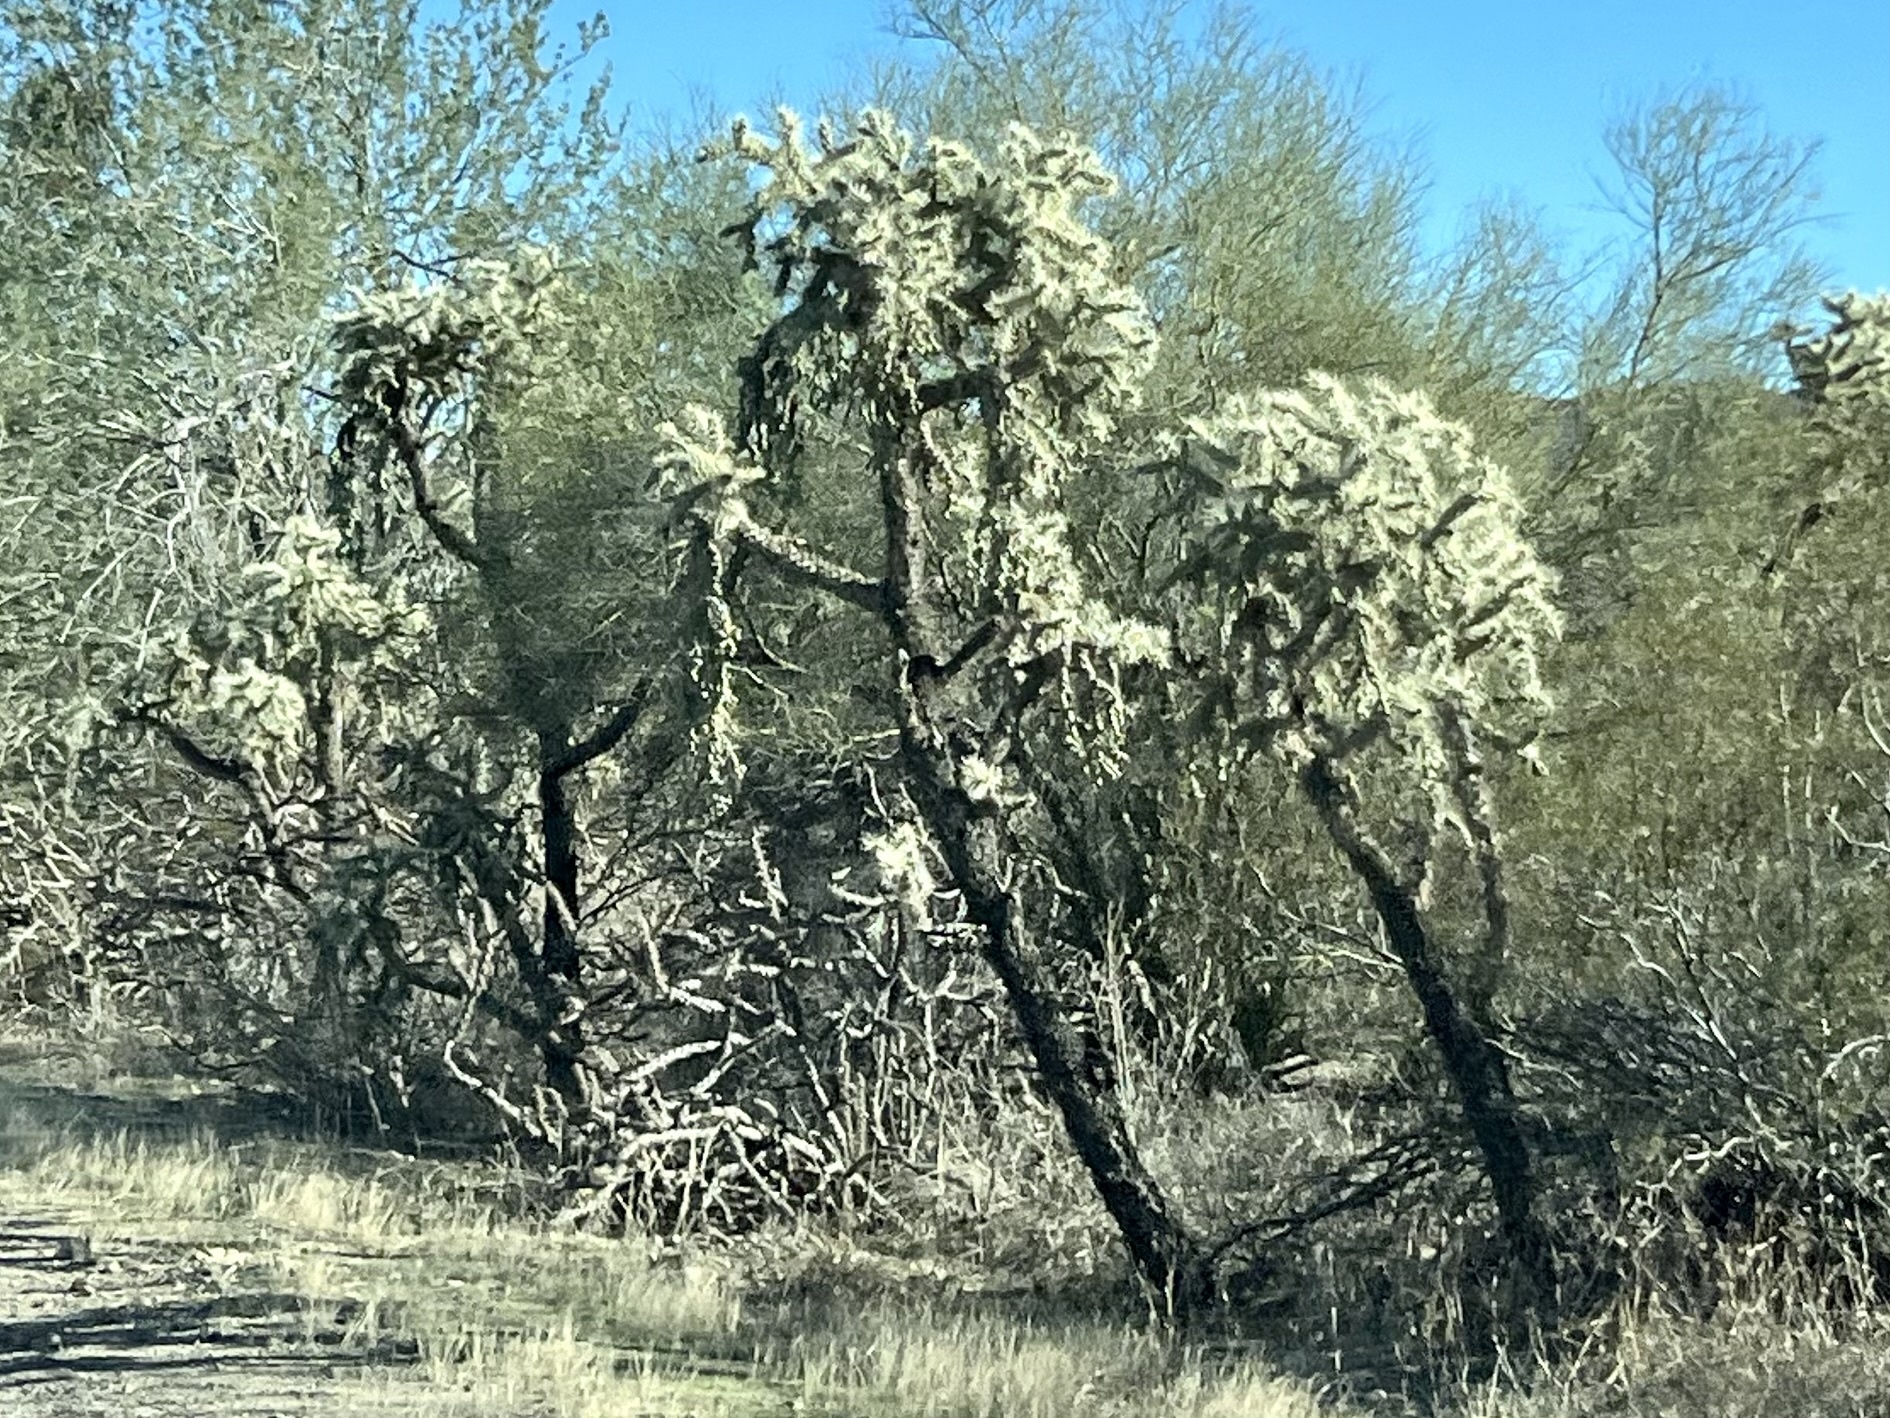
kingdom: Plantae
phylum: Tracheophyta
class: Magnoliopsida
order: Caryophyllales
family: Cactaceae
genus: Cylindropuntia
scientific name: Cylindropuntia fulgida
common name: Jumping cholla
